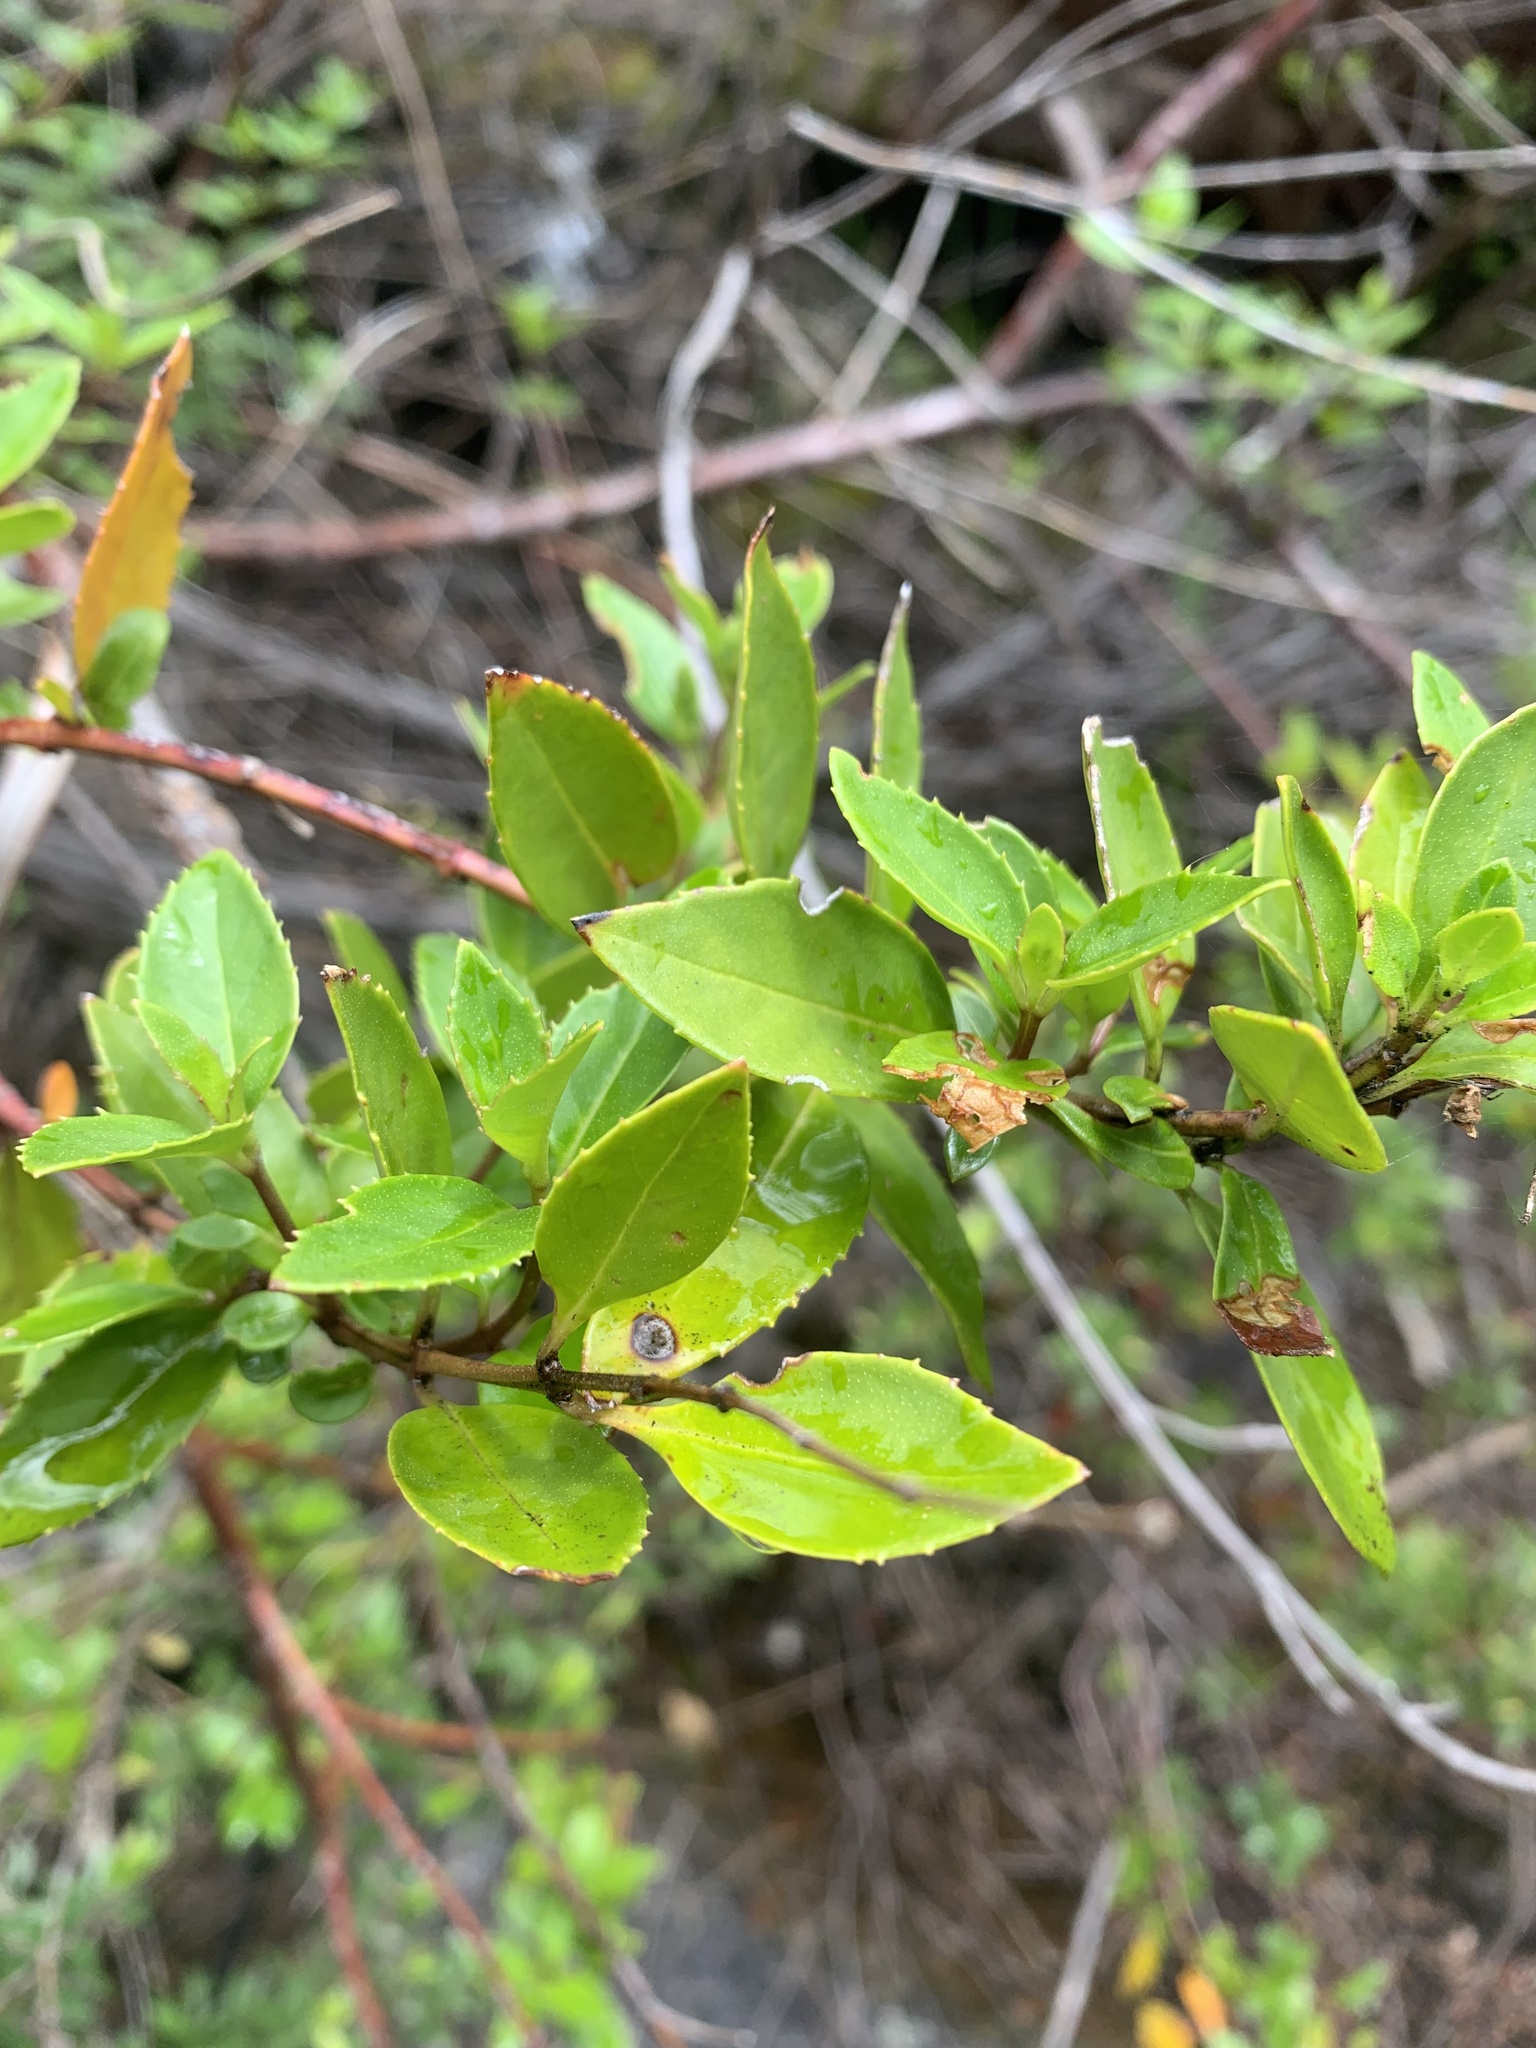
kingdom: Plantae
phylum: Tracheophyta
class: Magnoliopsida
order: Lamiales
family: Lamiaceae
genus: Prostanthera
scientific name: Prostanthera lasianthos
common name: Mountain-lilac
